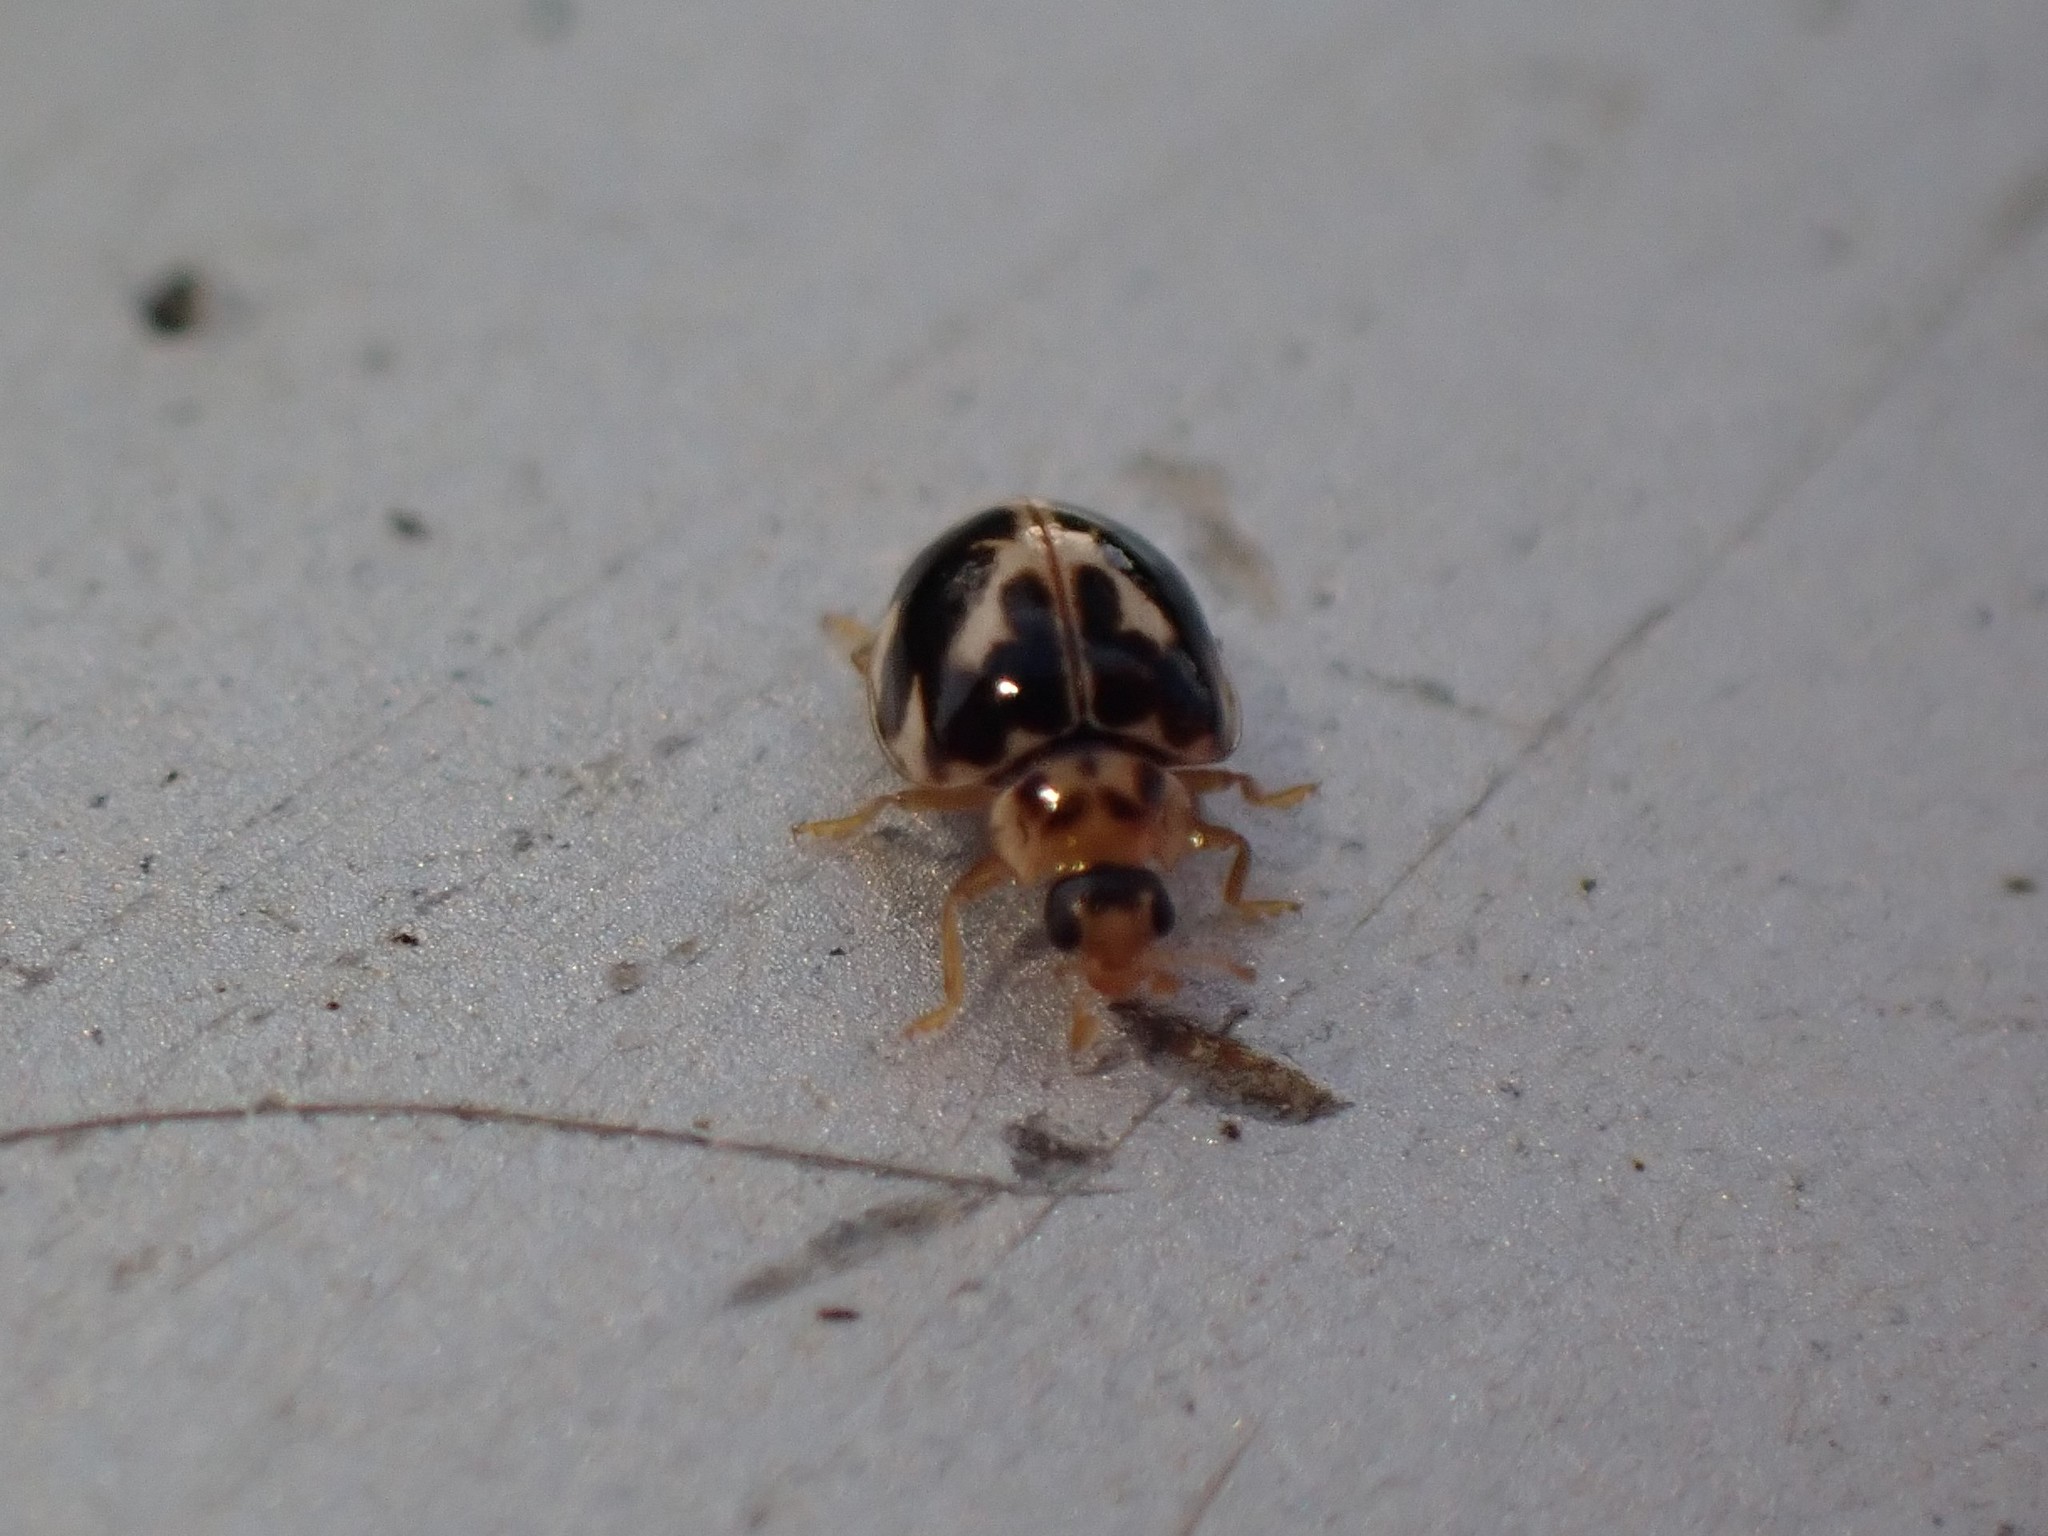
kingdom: Animalia
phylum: Arthropoda
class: Insecta
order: Coleoptera
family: Coccinellidae
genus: Psyllobora
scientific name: Psyllobora vigintimaculata
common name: Ladybird beetle
